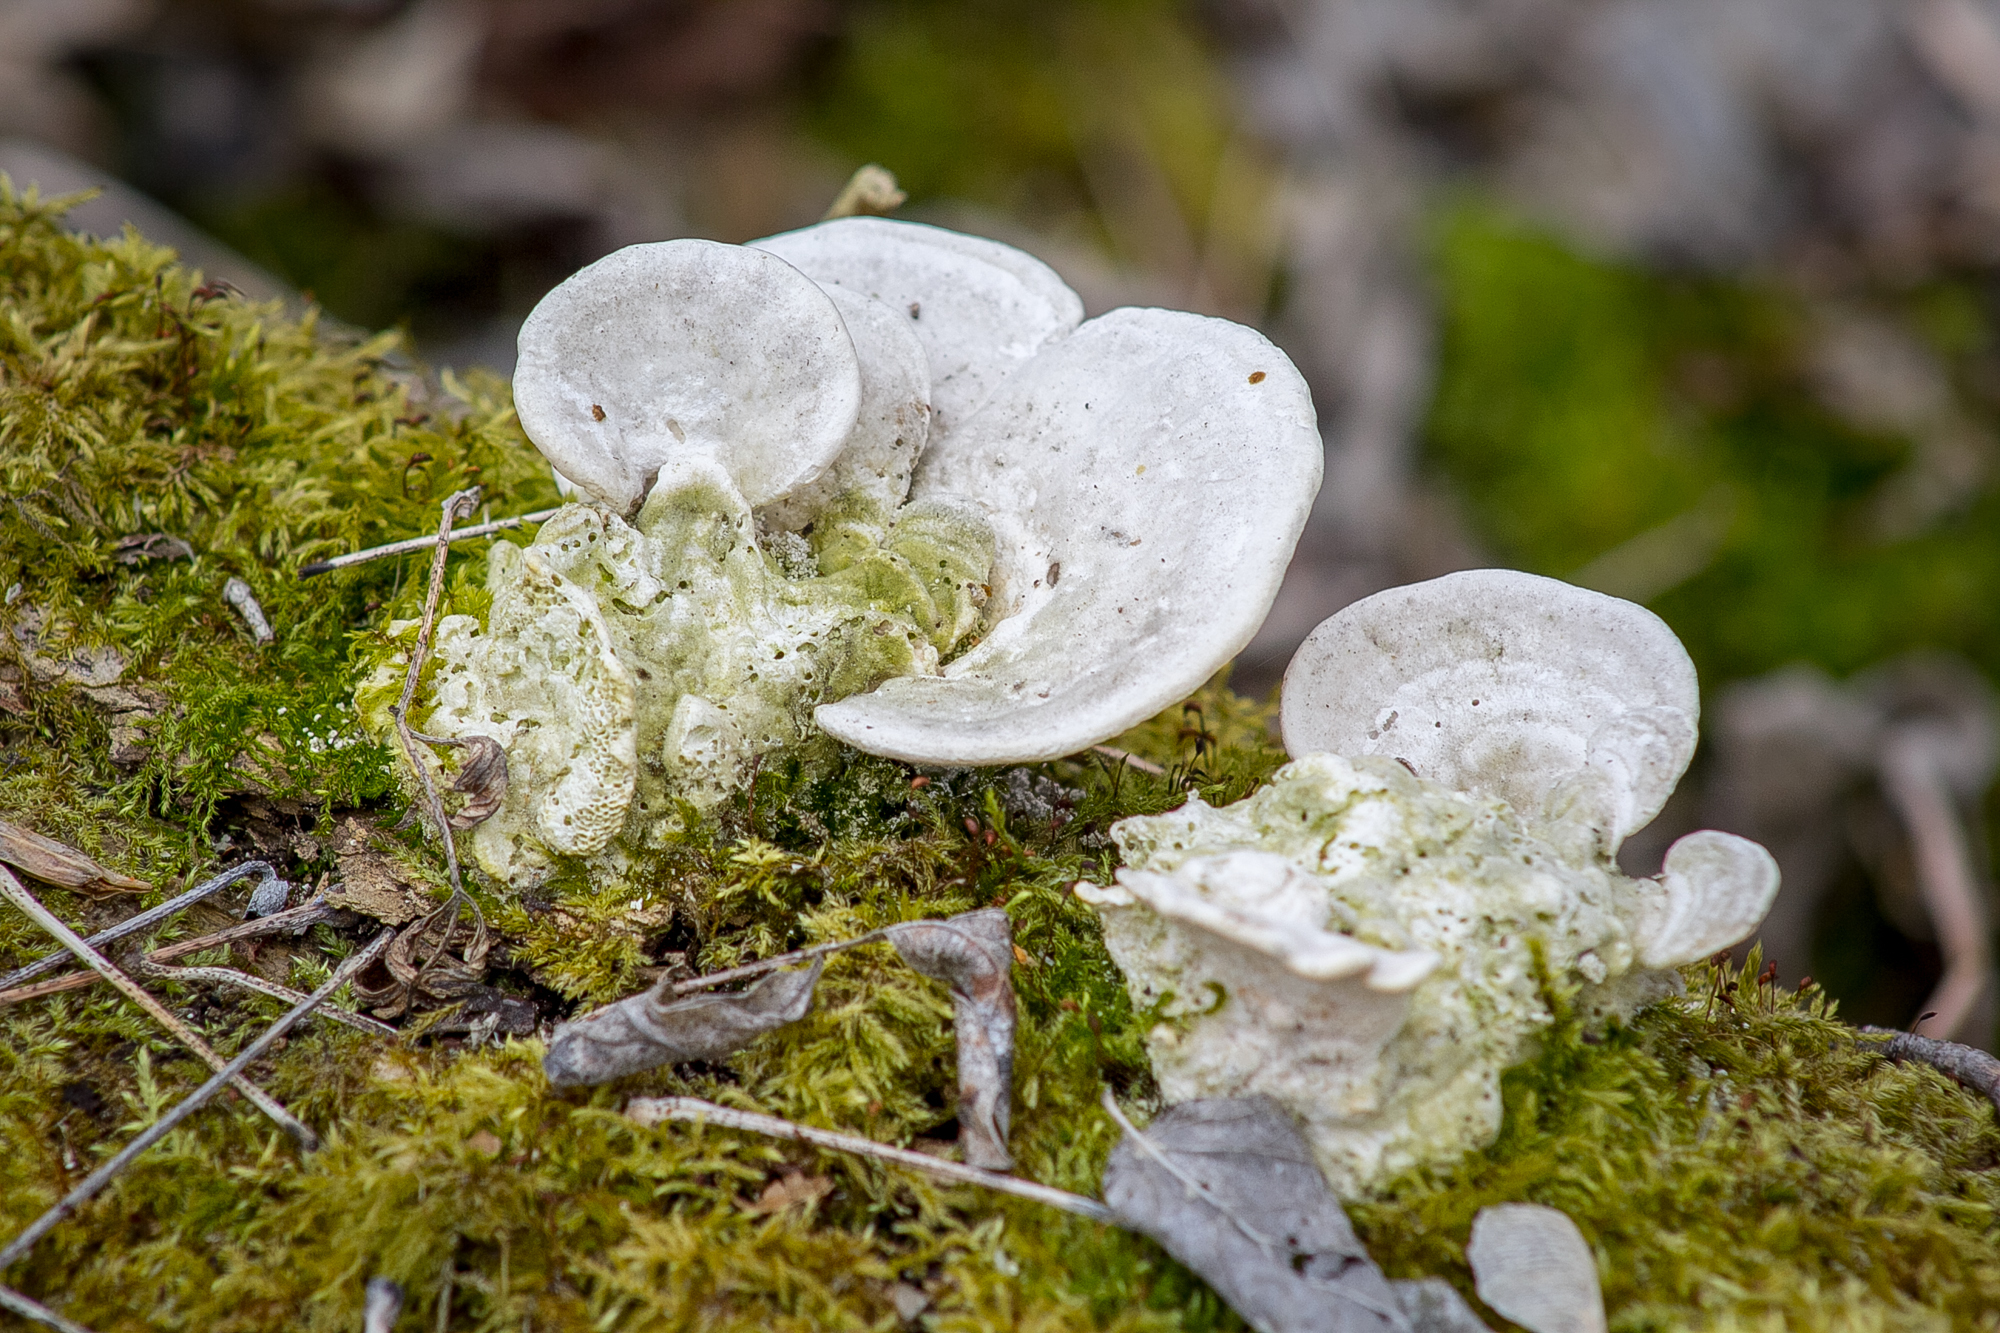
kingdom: Fungi
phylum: Basidiomycota
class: Agaricomycetes
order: Polyporales
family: Polyporaceae
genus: Trametes
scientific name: Trametes gibbosa
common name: Lumpy bracket
